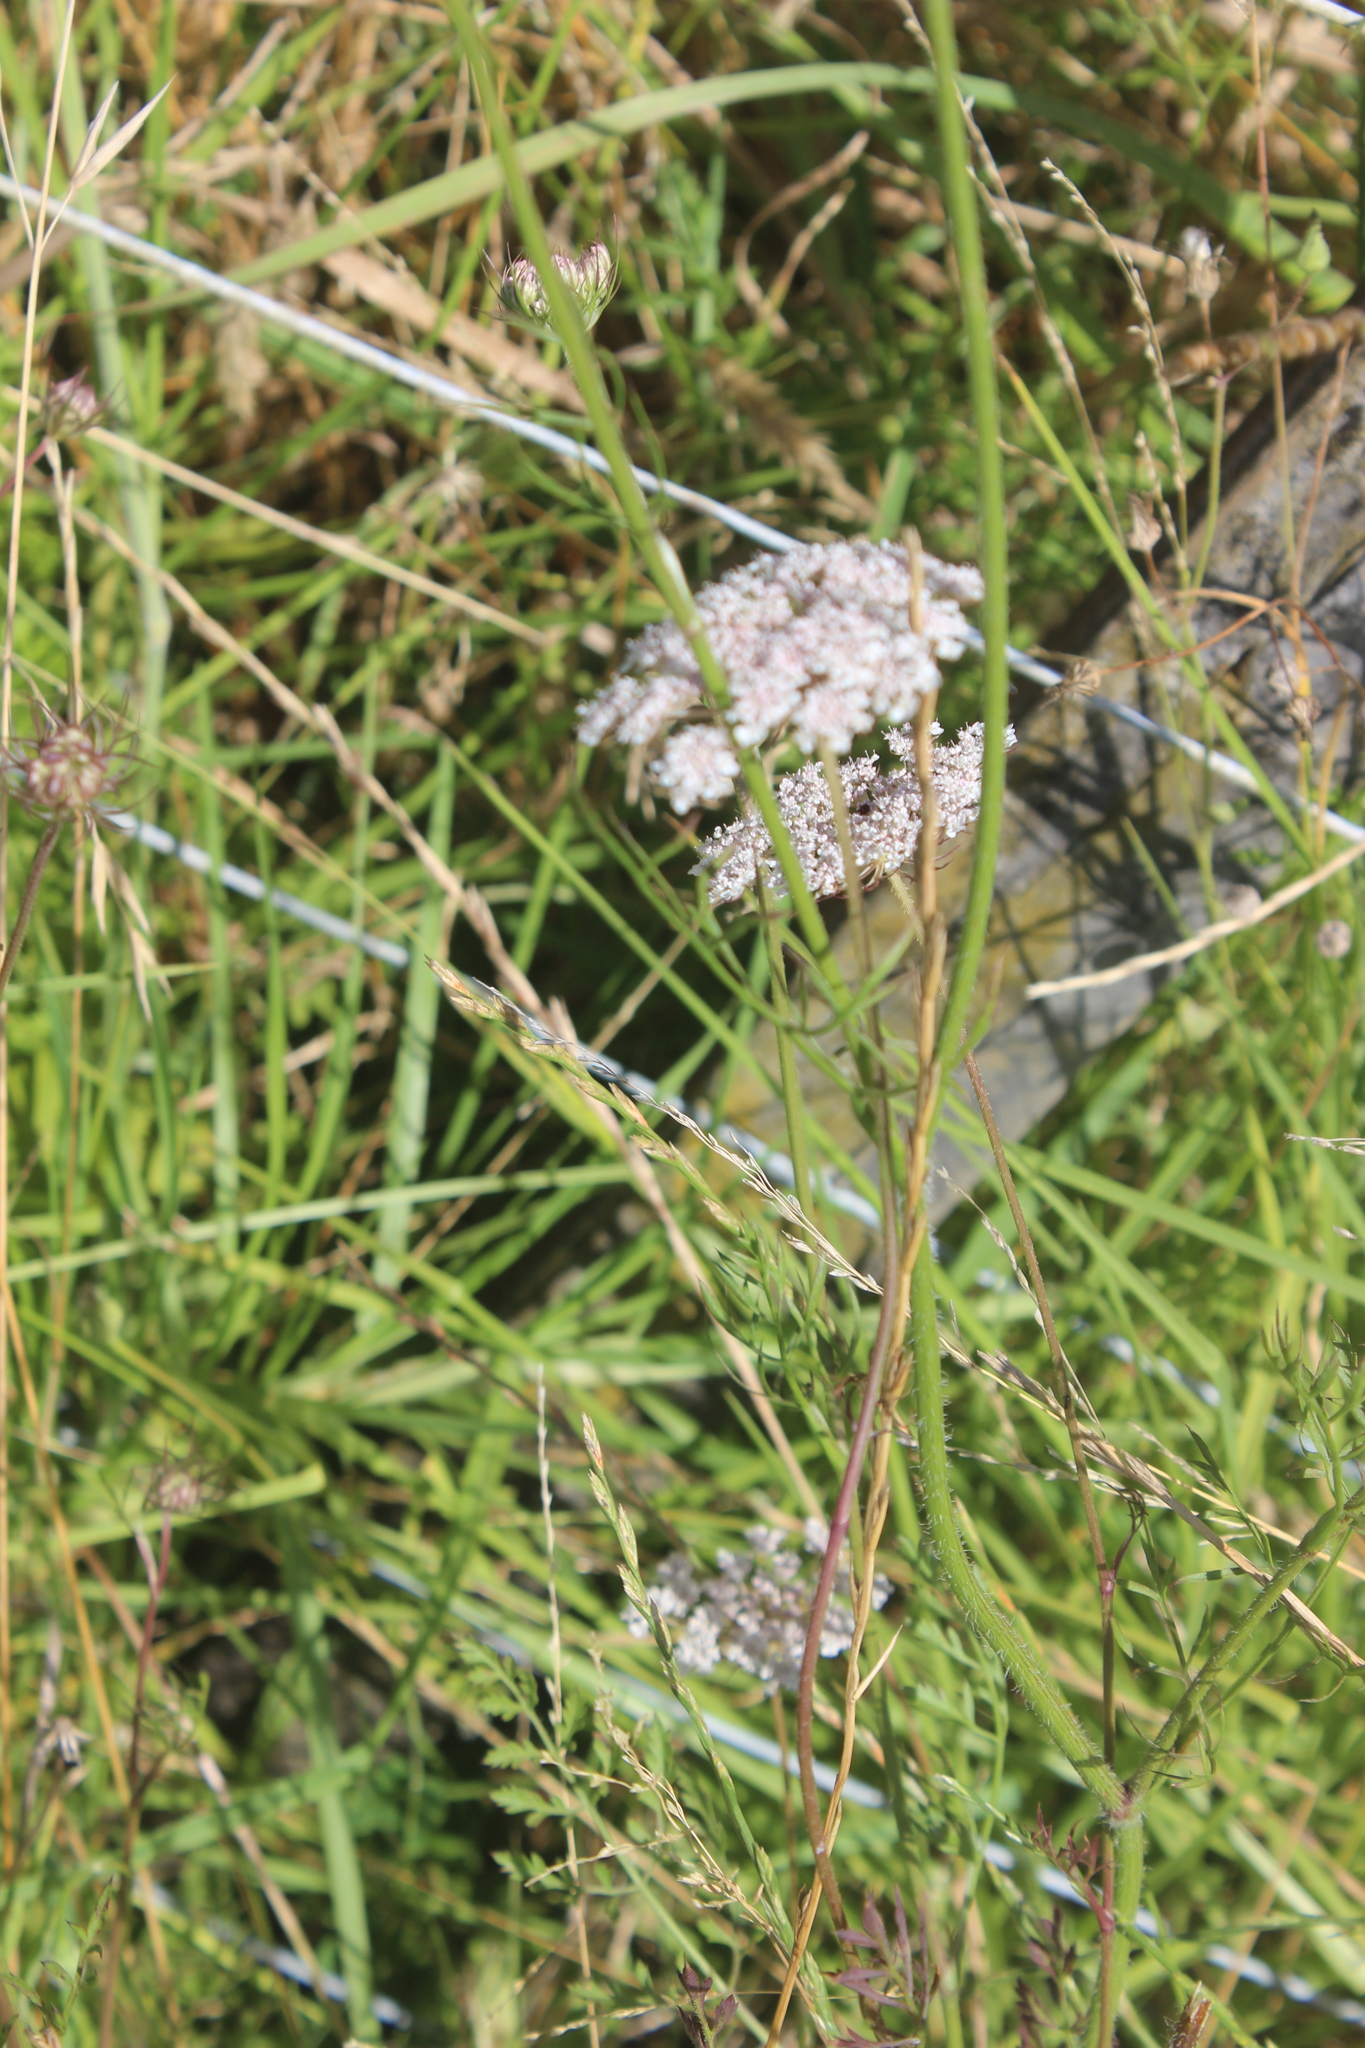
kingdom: Plantae
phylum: Tracheophyta
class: Magnoliopsida
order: Apiales
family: Apiaceae
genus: Daucus
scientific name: Daucus carota
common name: Wild carrot
